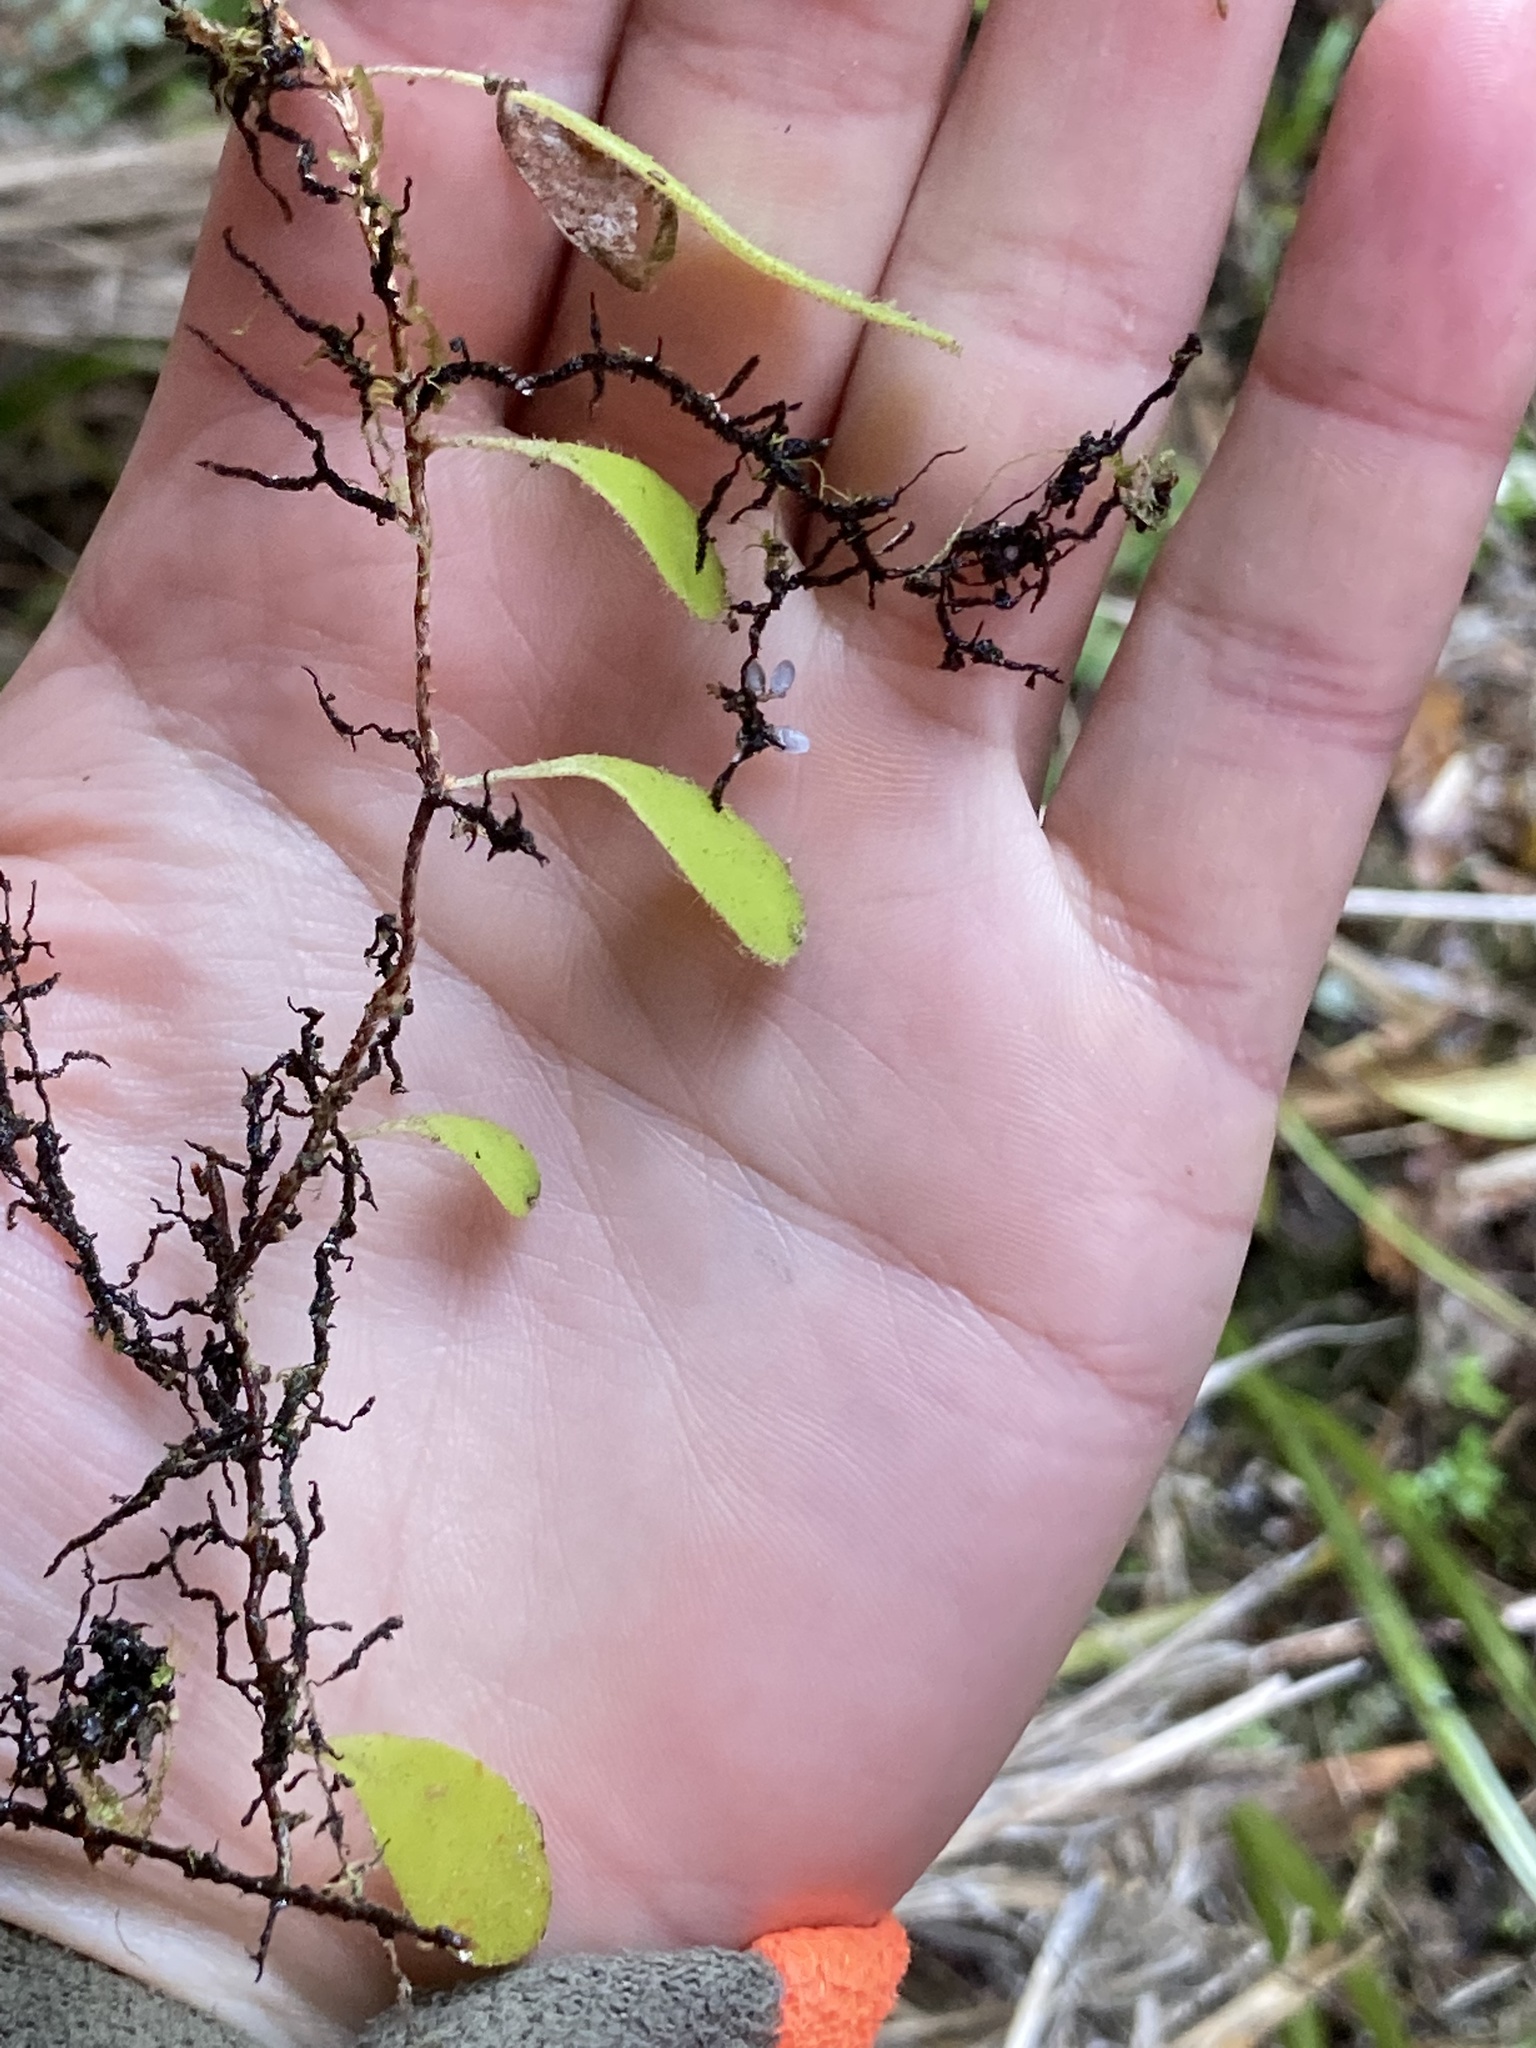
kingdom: Plantae
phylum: Tracheophyta
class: Polypodiopsida
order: Polypodiales
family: Polypodiaceae
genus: Pyrrosia
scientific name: Pyrrosia eleagnifolia
